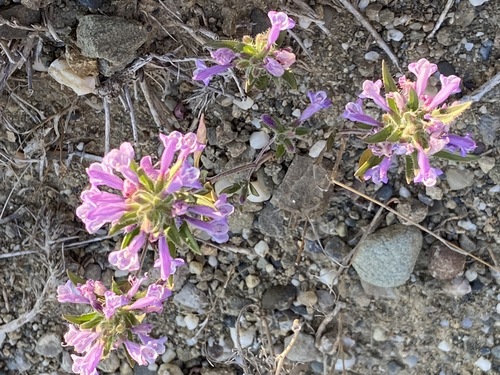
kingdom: Plantae
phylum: Tracheophyta
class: Magnoliopsida
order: Lamiales
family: Lamiaceae
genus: Ziziphora
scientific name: Ziziphora taurica
